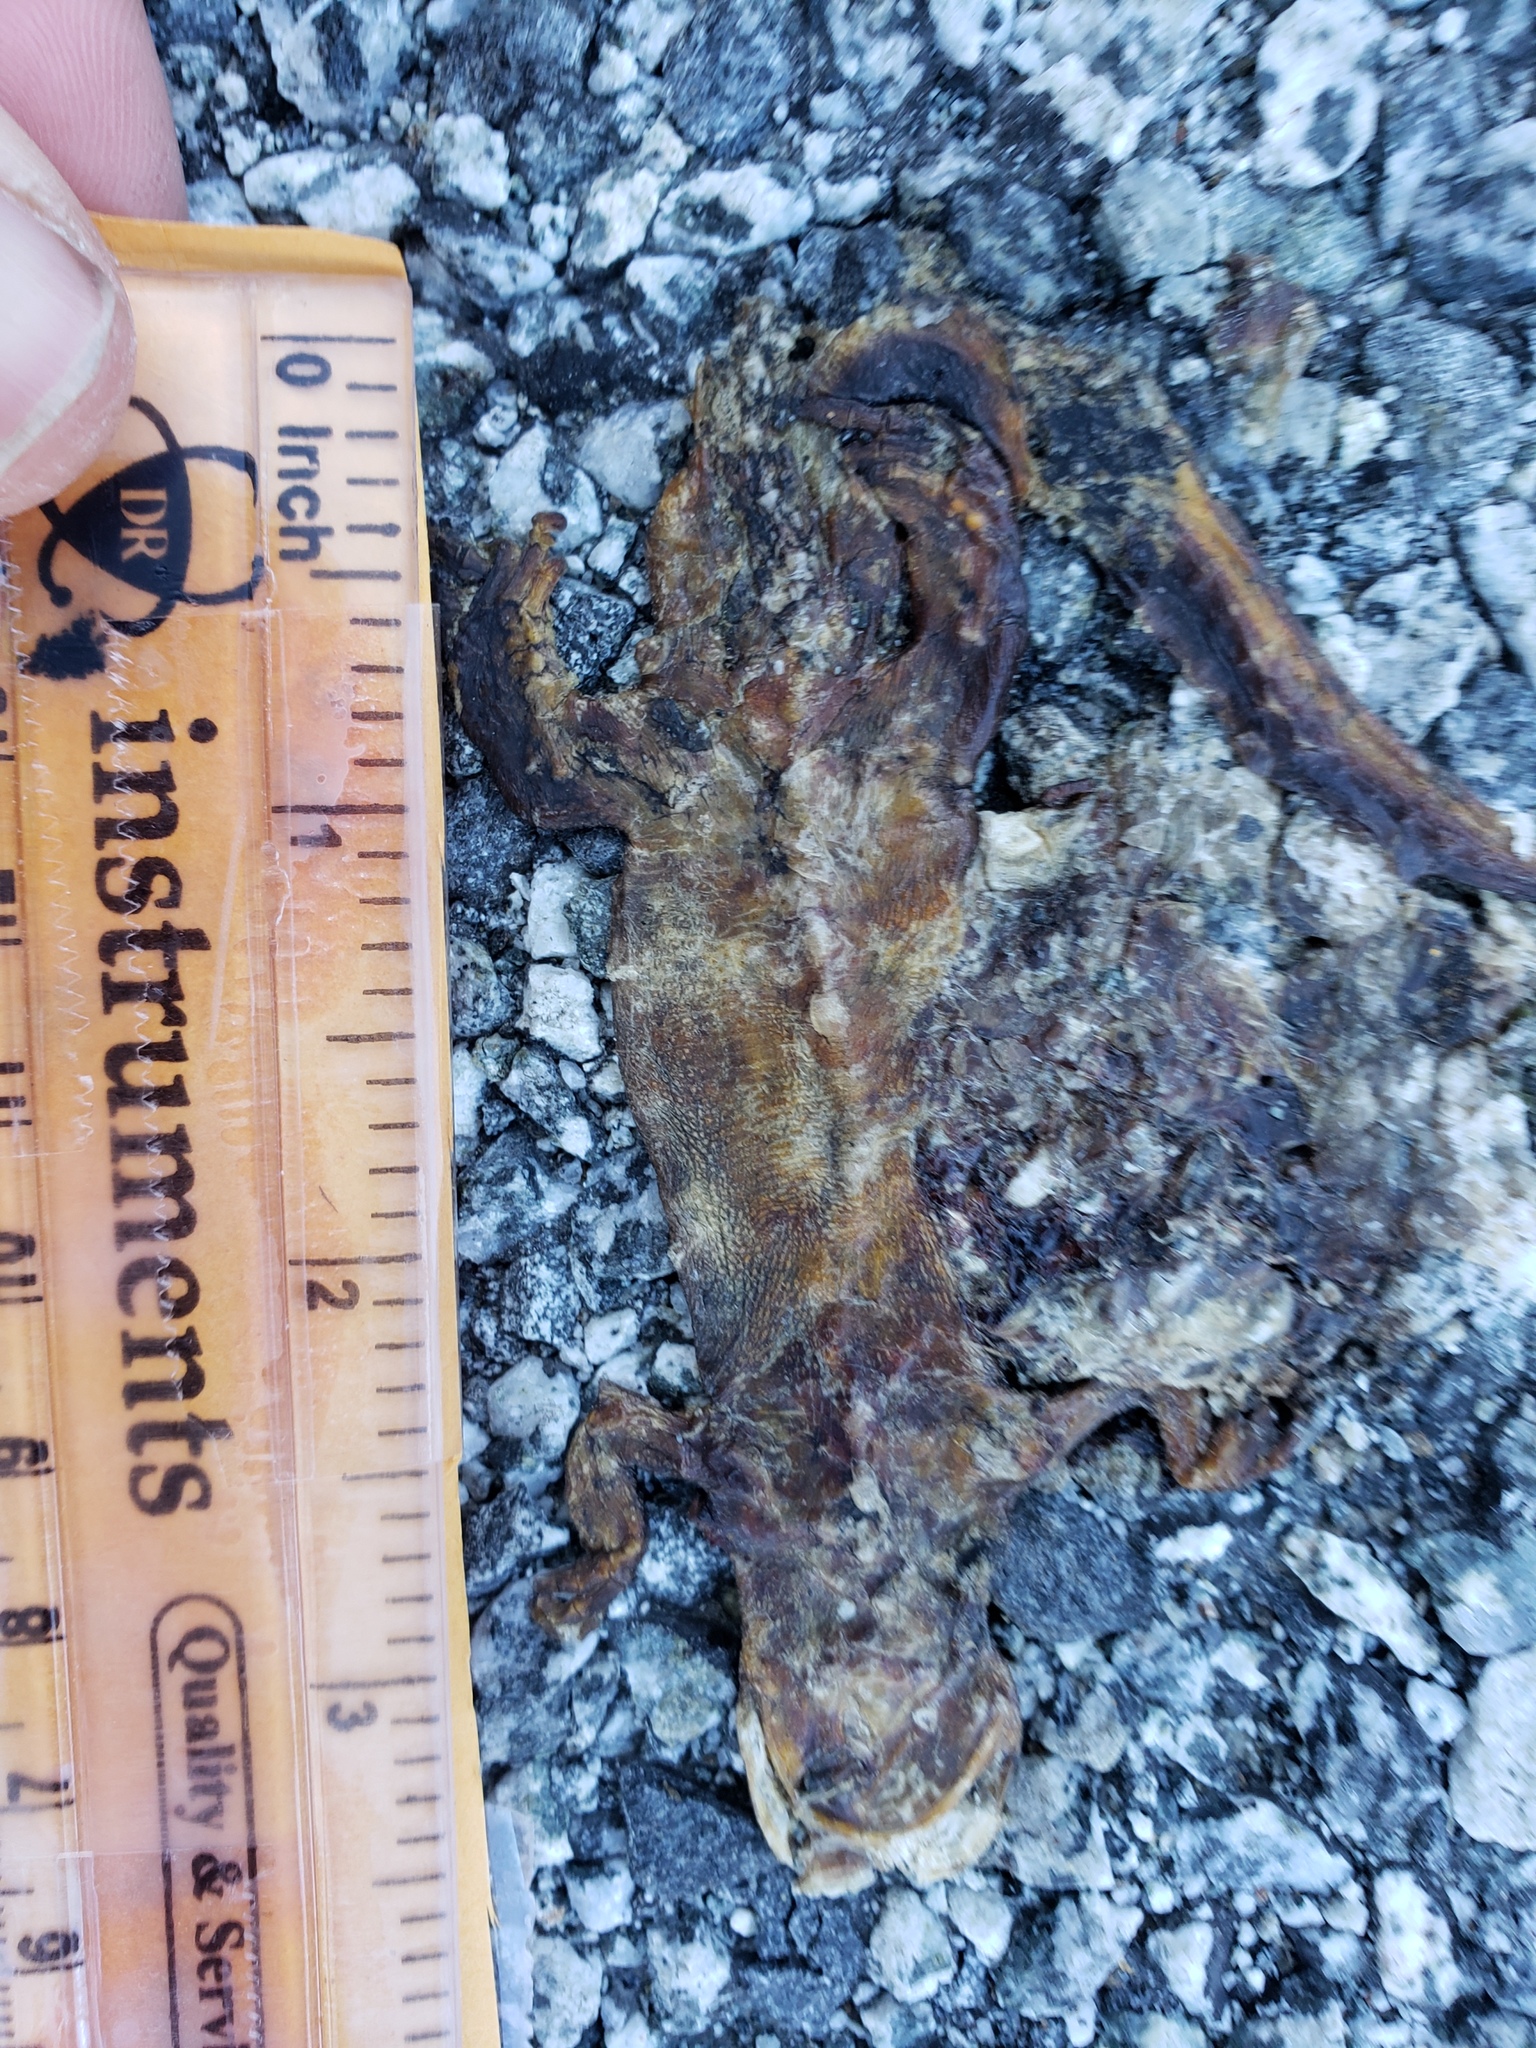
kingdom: Animalia
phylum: Chordata
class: Amphibia
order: Caudata
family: Salamandridae
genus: Taricha
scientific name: Taricha
